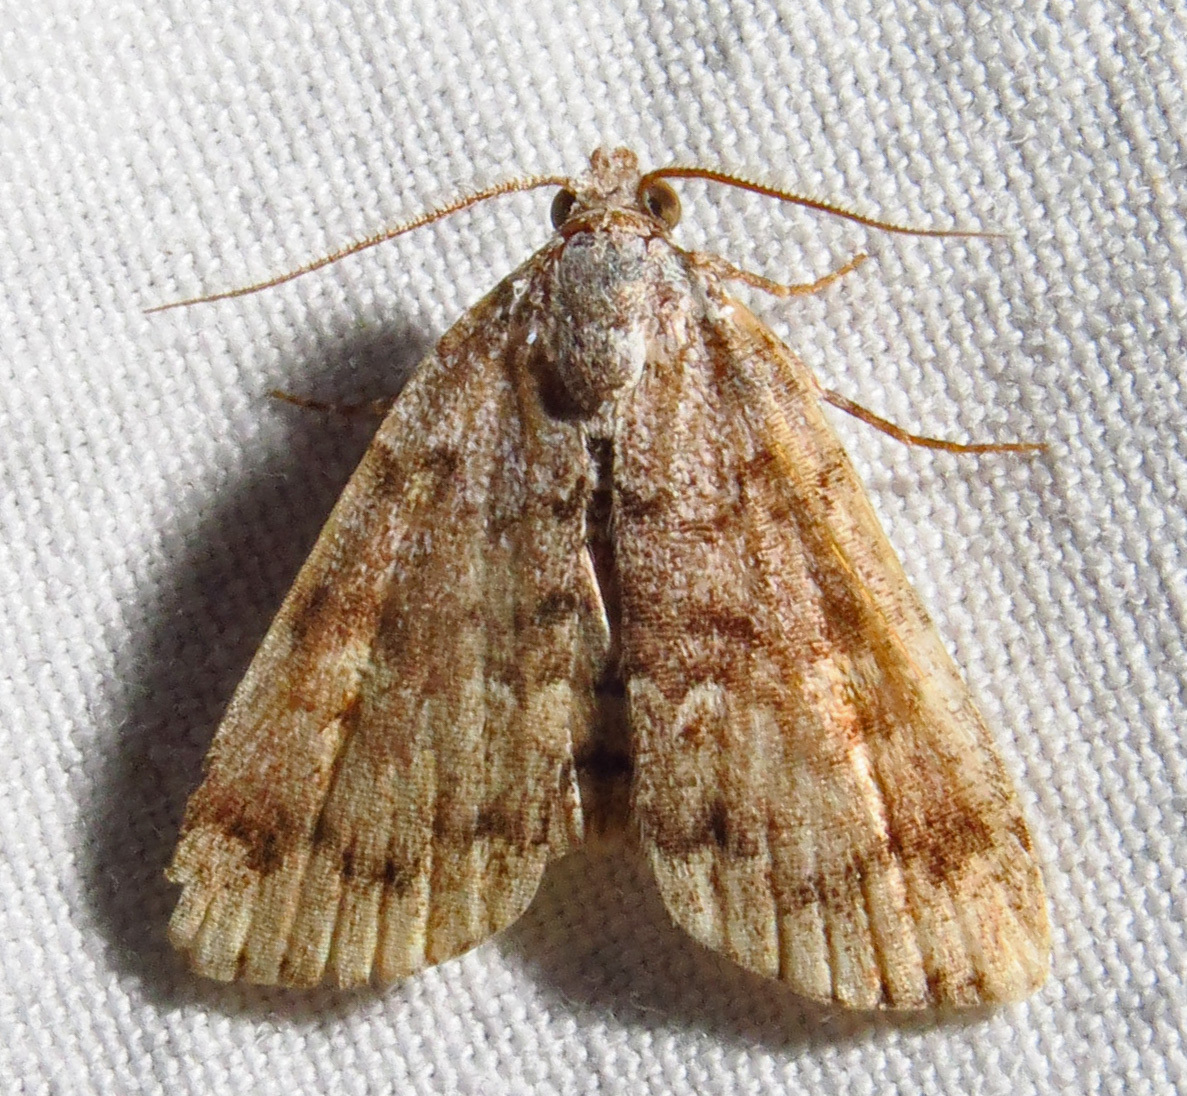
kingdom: Animalia
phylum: Arthropoda
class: Insecta
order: Lepidoptera
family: Erebidae
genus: Idia
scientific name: Idia americalis
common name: American idia moth
